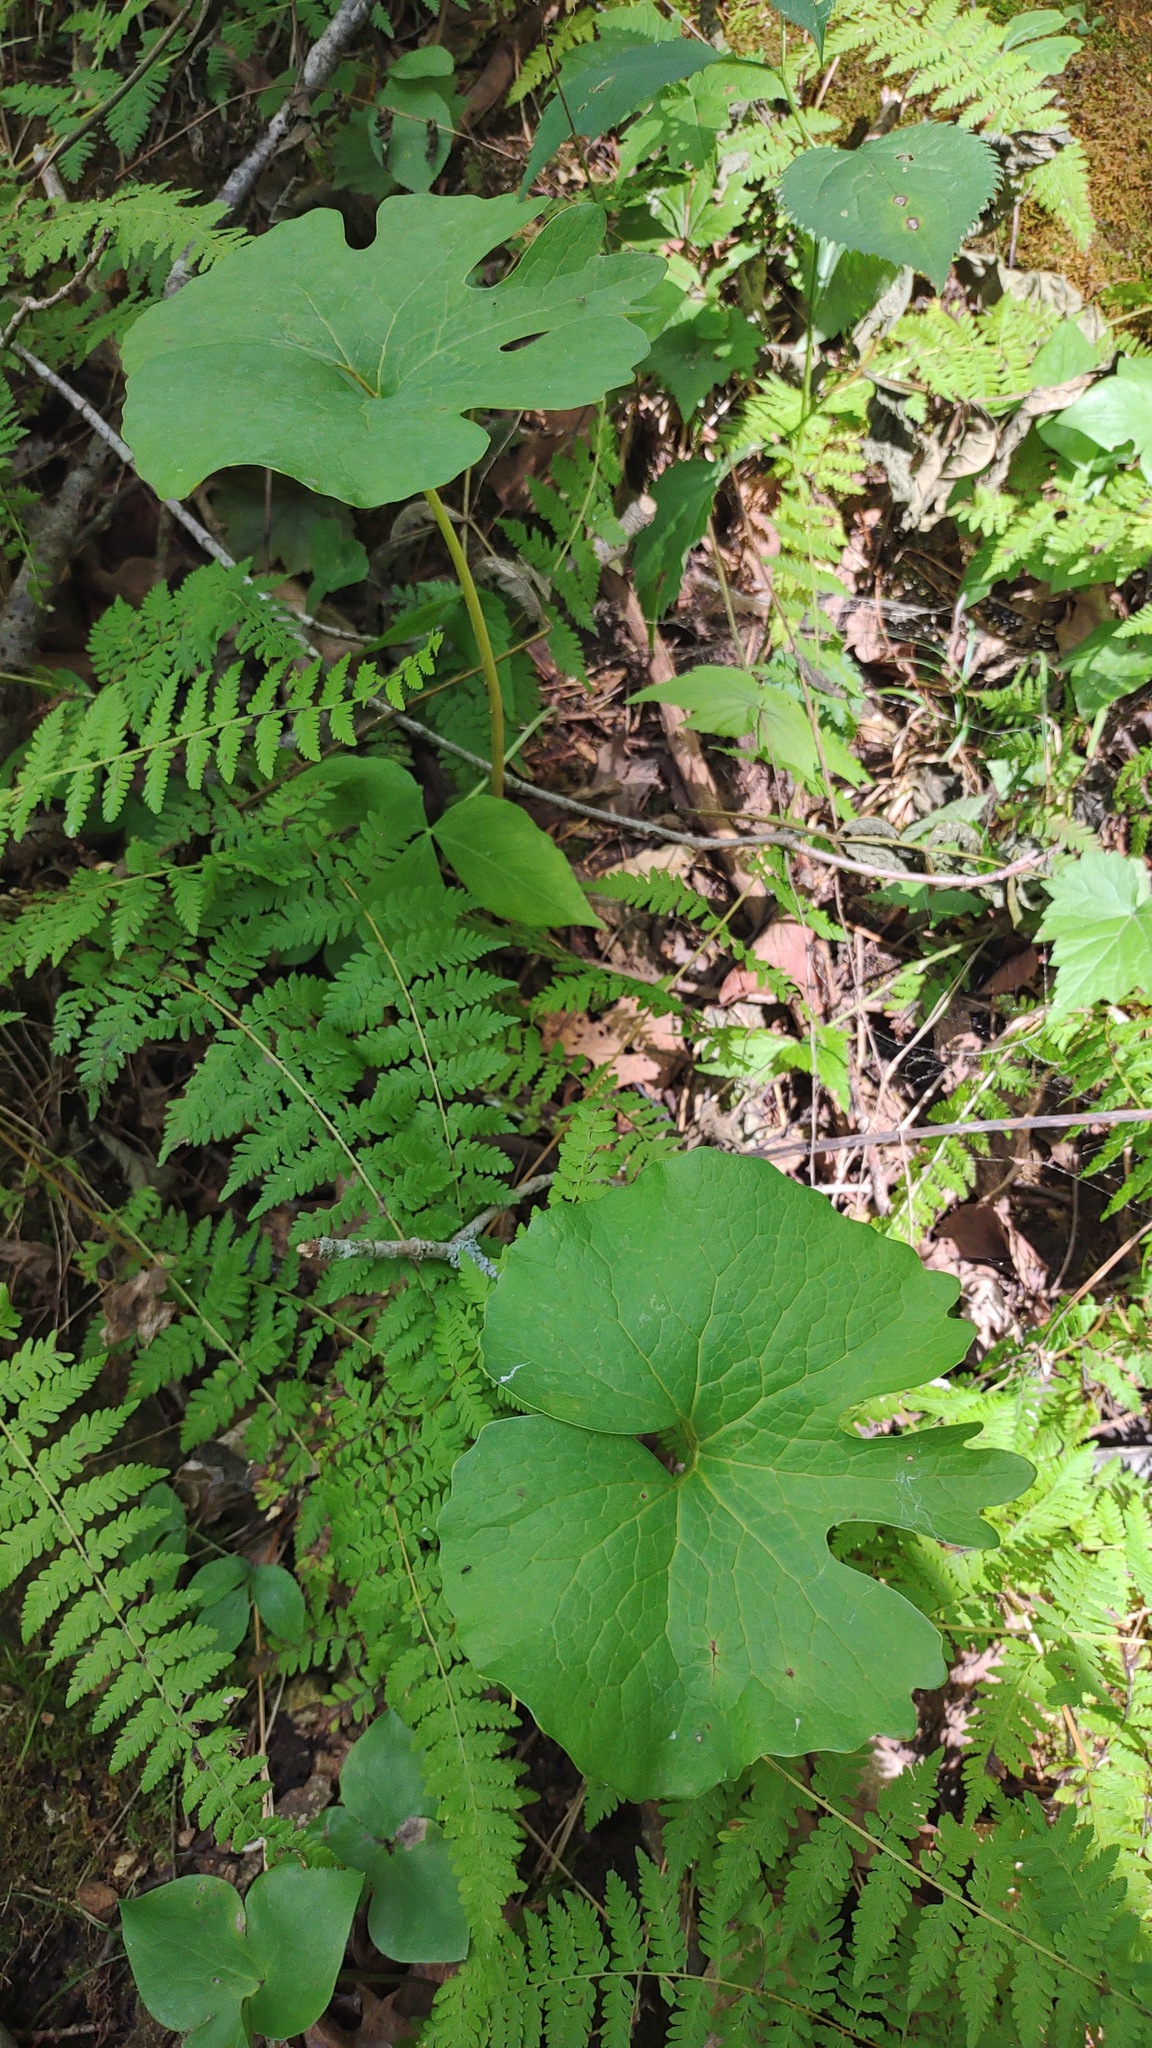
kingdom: Plantae
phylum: Tracheophyta
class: Magnoliopsida
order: Ranunculales
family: Papaveraceae
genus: Sanguinaria
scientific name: Sanguinaria canadensis
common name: Bloodroot
